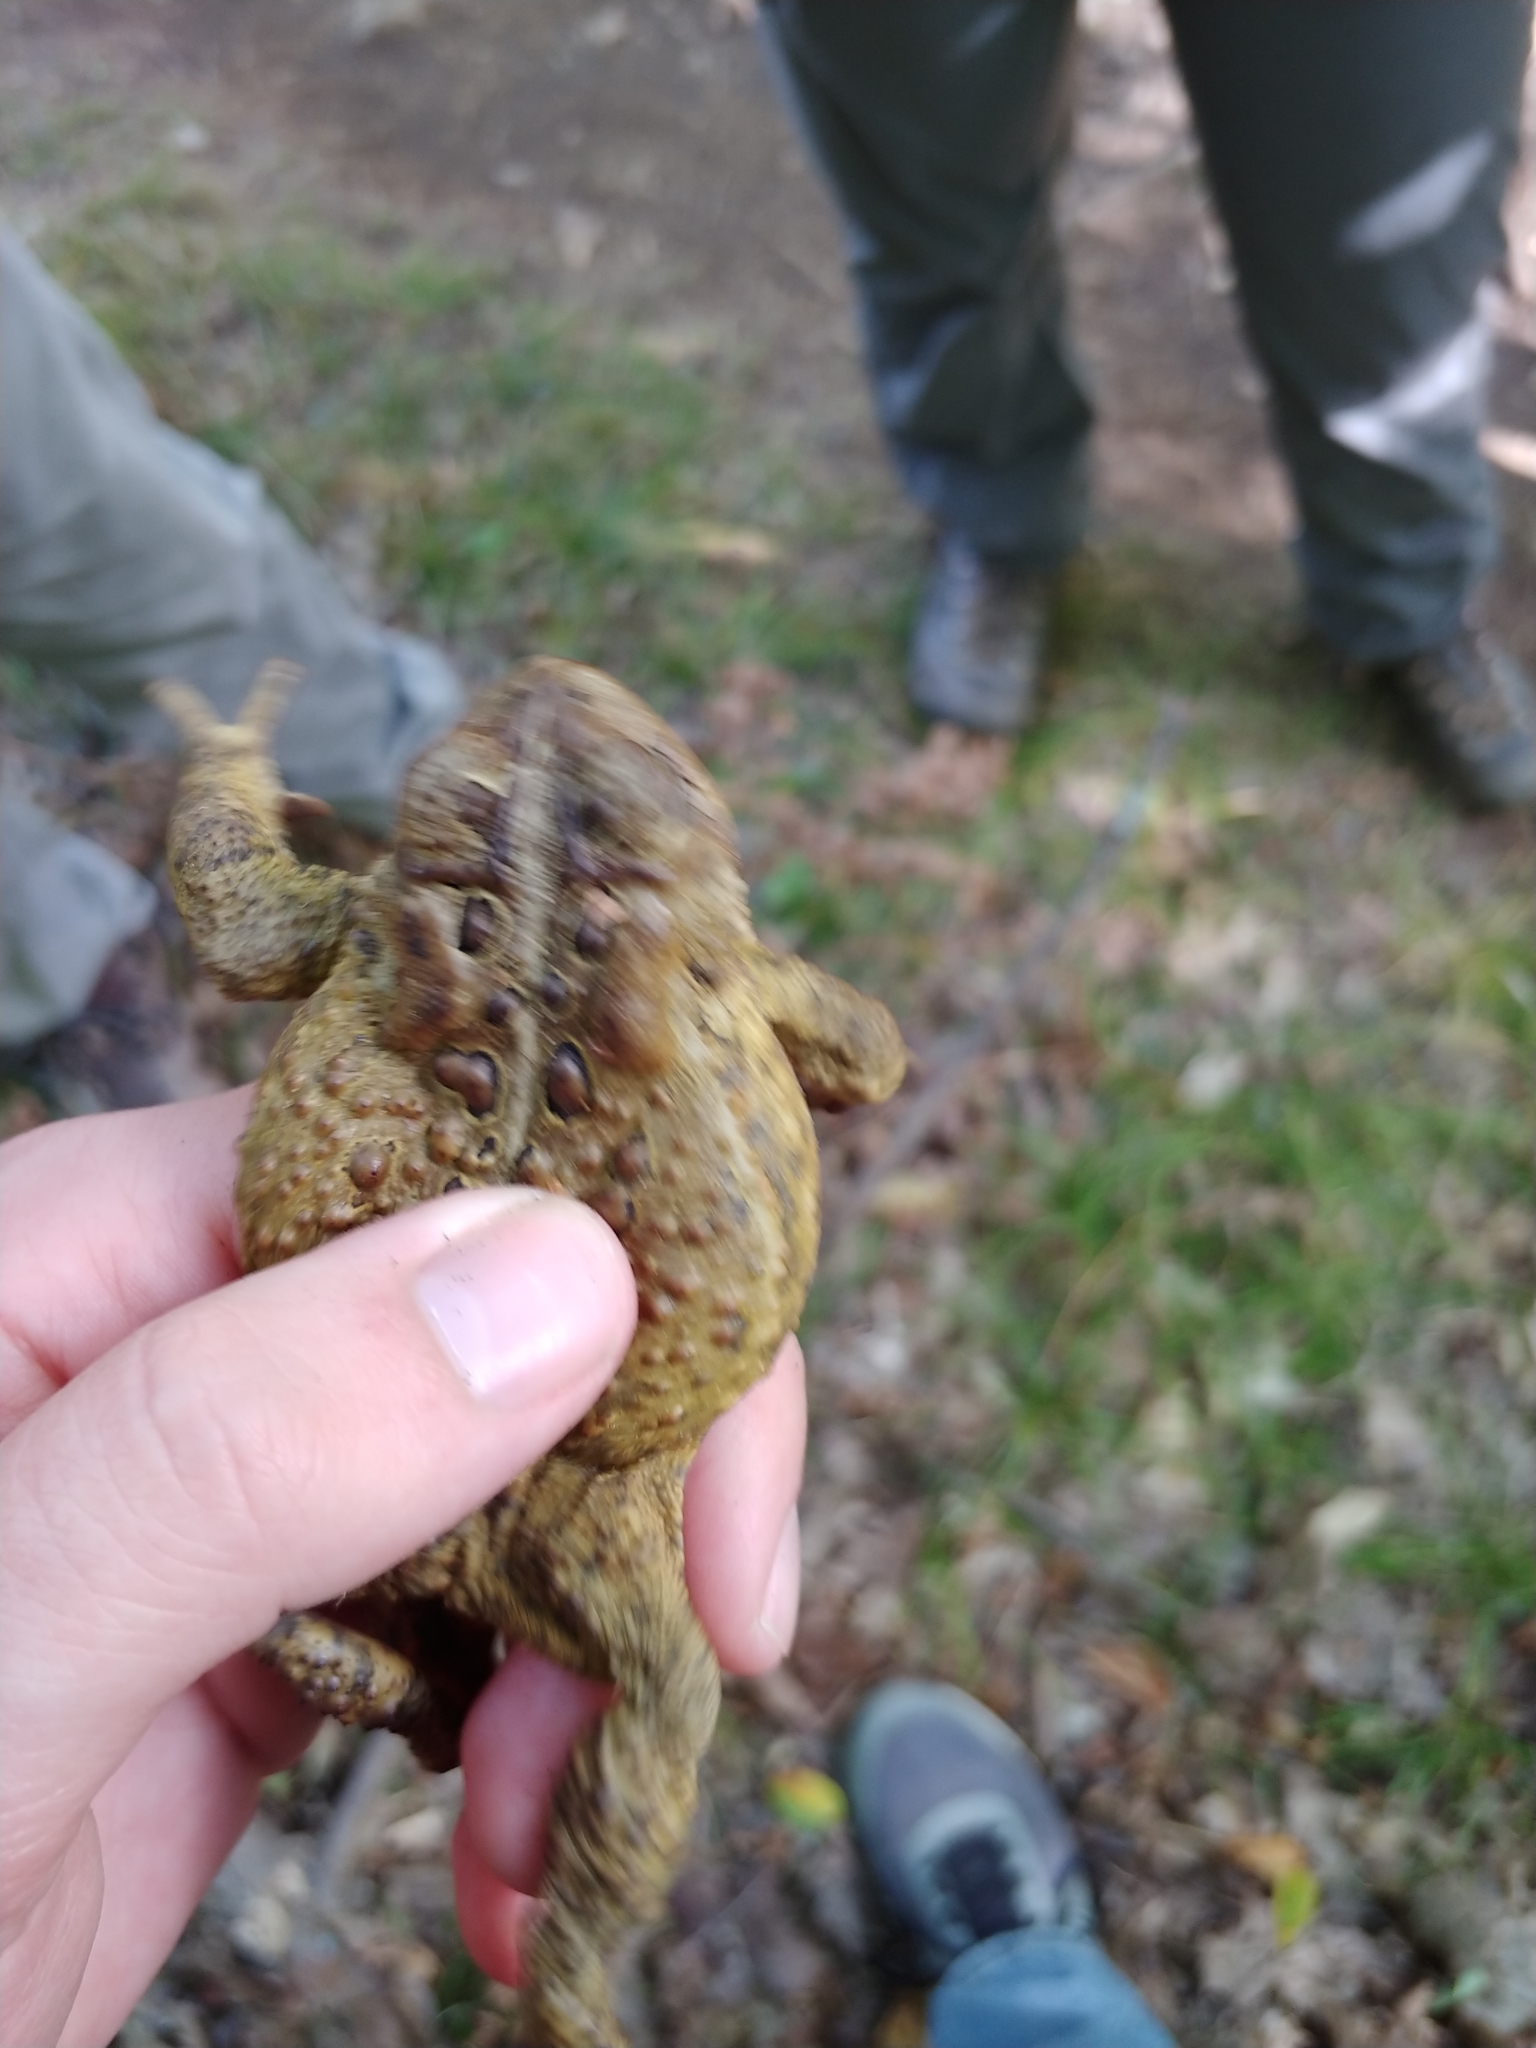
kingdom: Animalia
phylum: Chordata
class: Amphibia
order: Anura
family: Bufonidae
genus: Anaxyrus
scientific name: Anaxyrus americanus
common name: American toad
